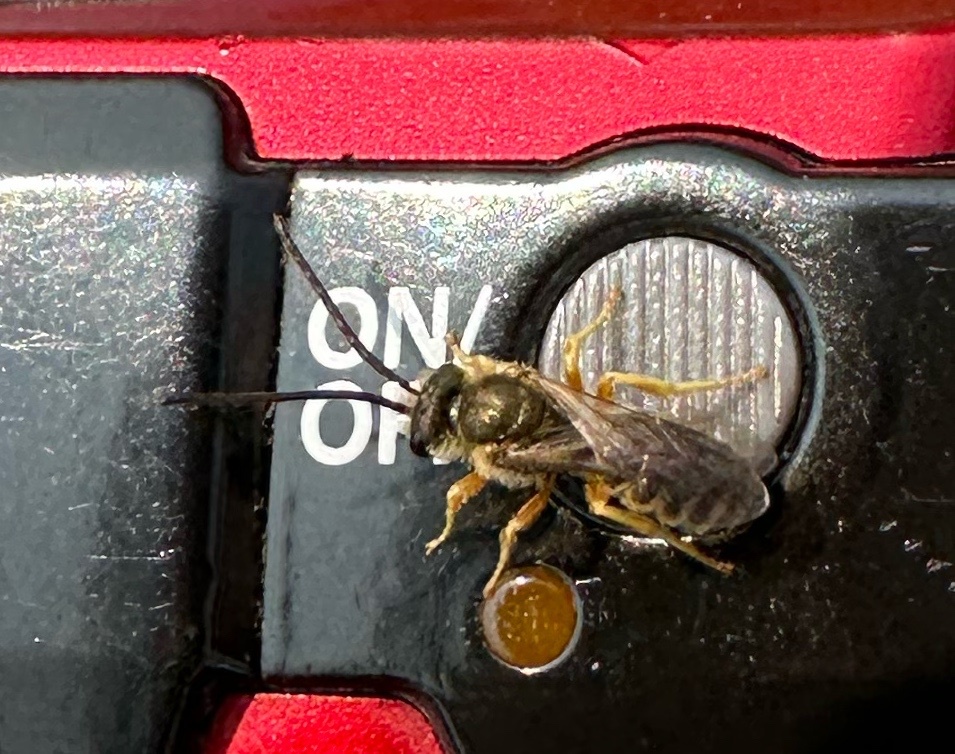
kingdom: Animalia
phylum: Arthropoda
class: Insecta
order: Hymenoptera
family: Halictidae
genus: Halictus
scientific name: Halictus confusus
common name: Southern bronze furrow bee
